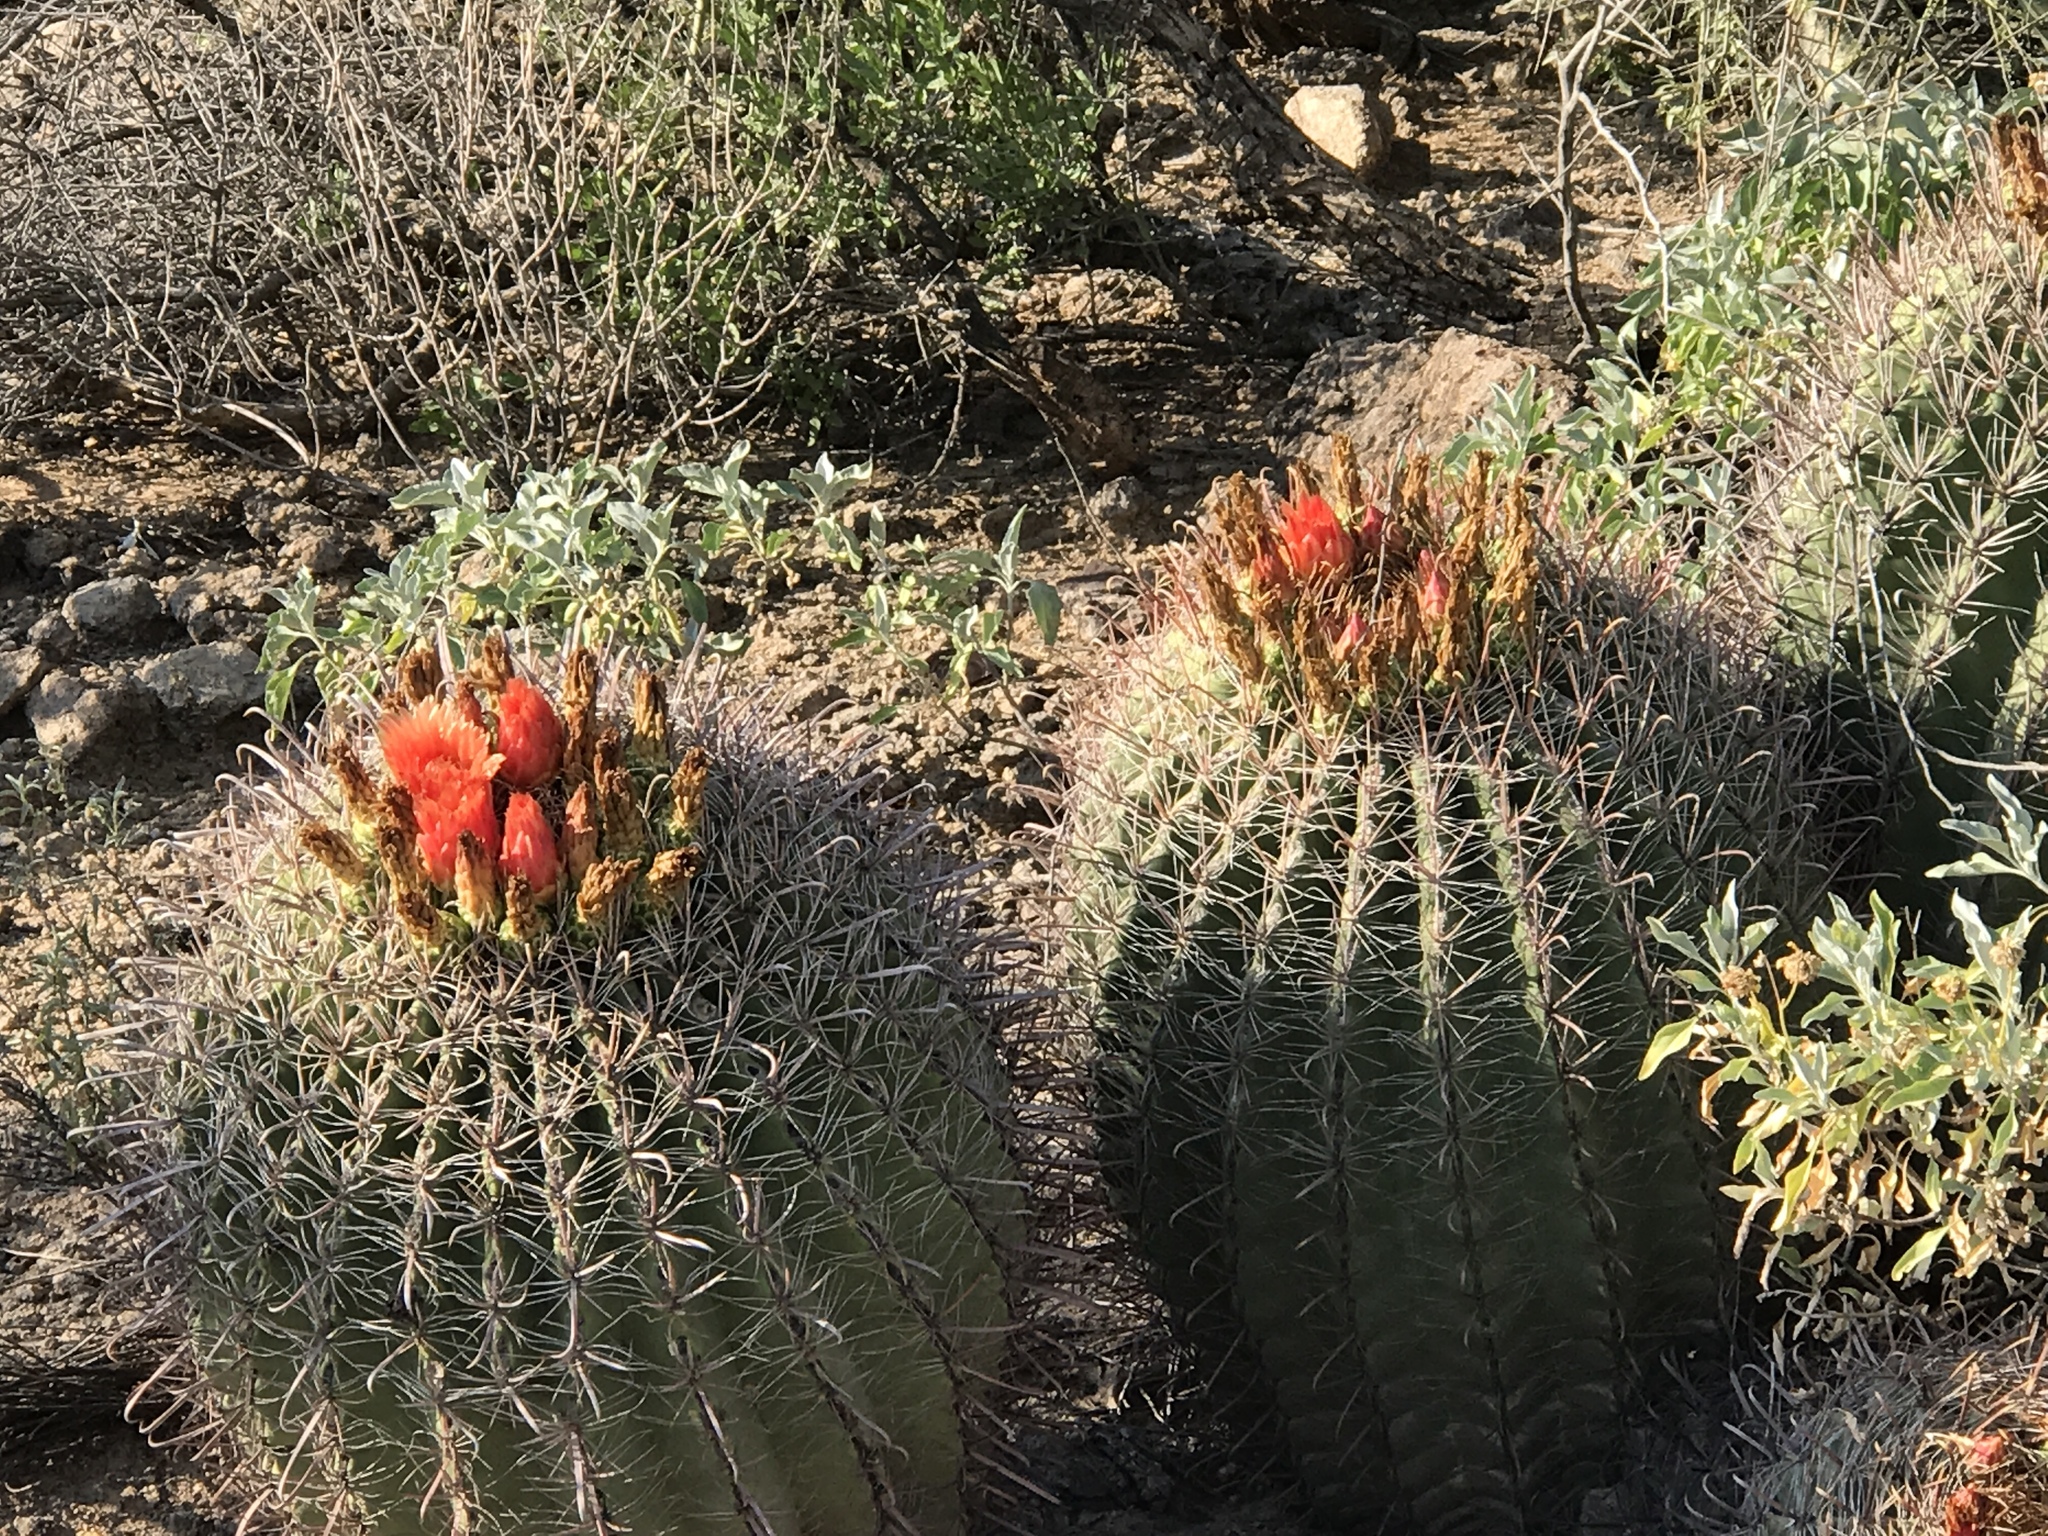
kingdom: Plantae
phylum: Tracheophyta
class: Magnoliopsida
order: Caryophyllales
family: Cactaceae
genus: Ferocactus
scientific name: Ferocactus wislizeni
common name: Candy barrel cactus
